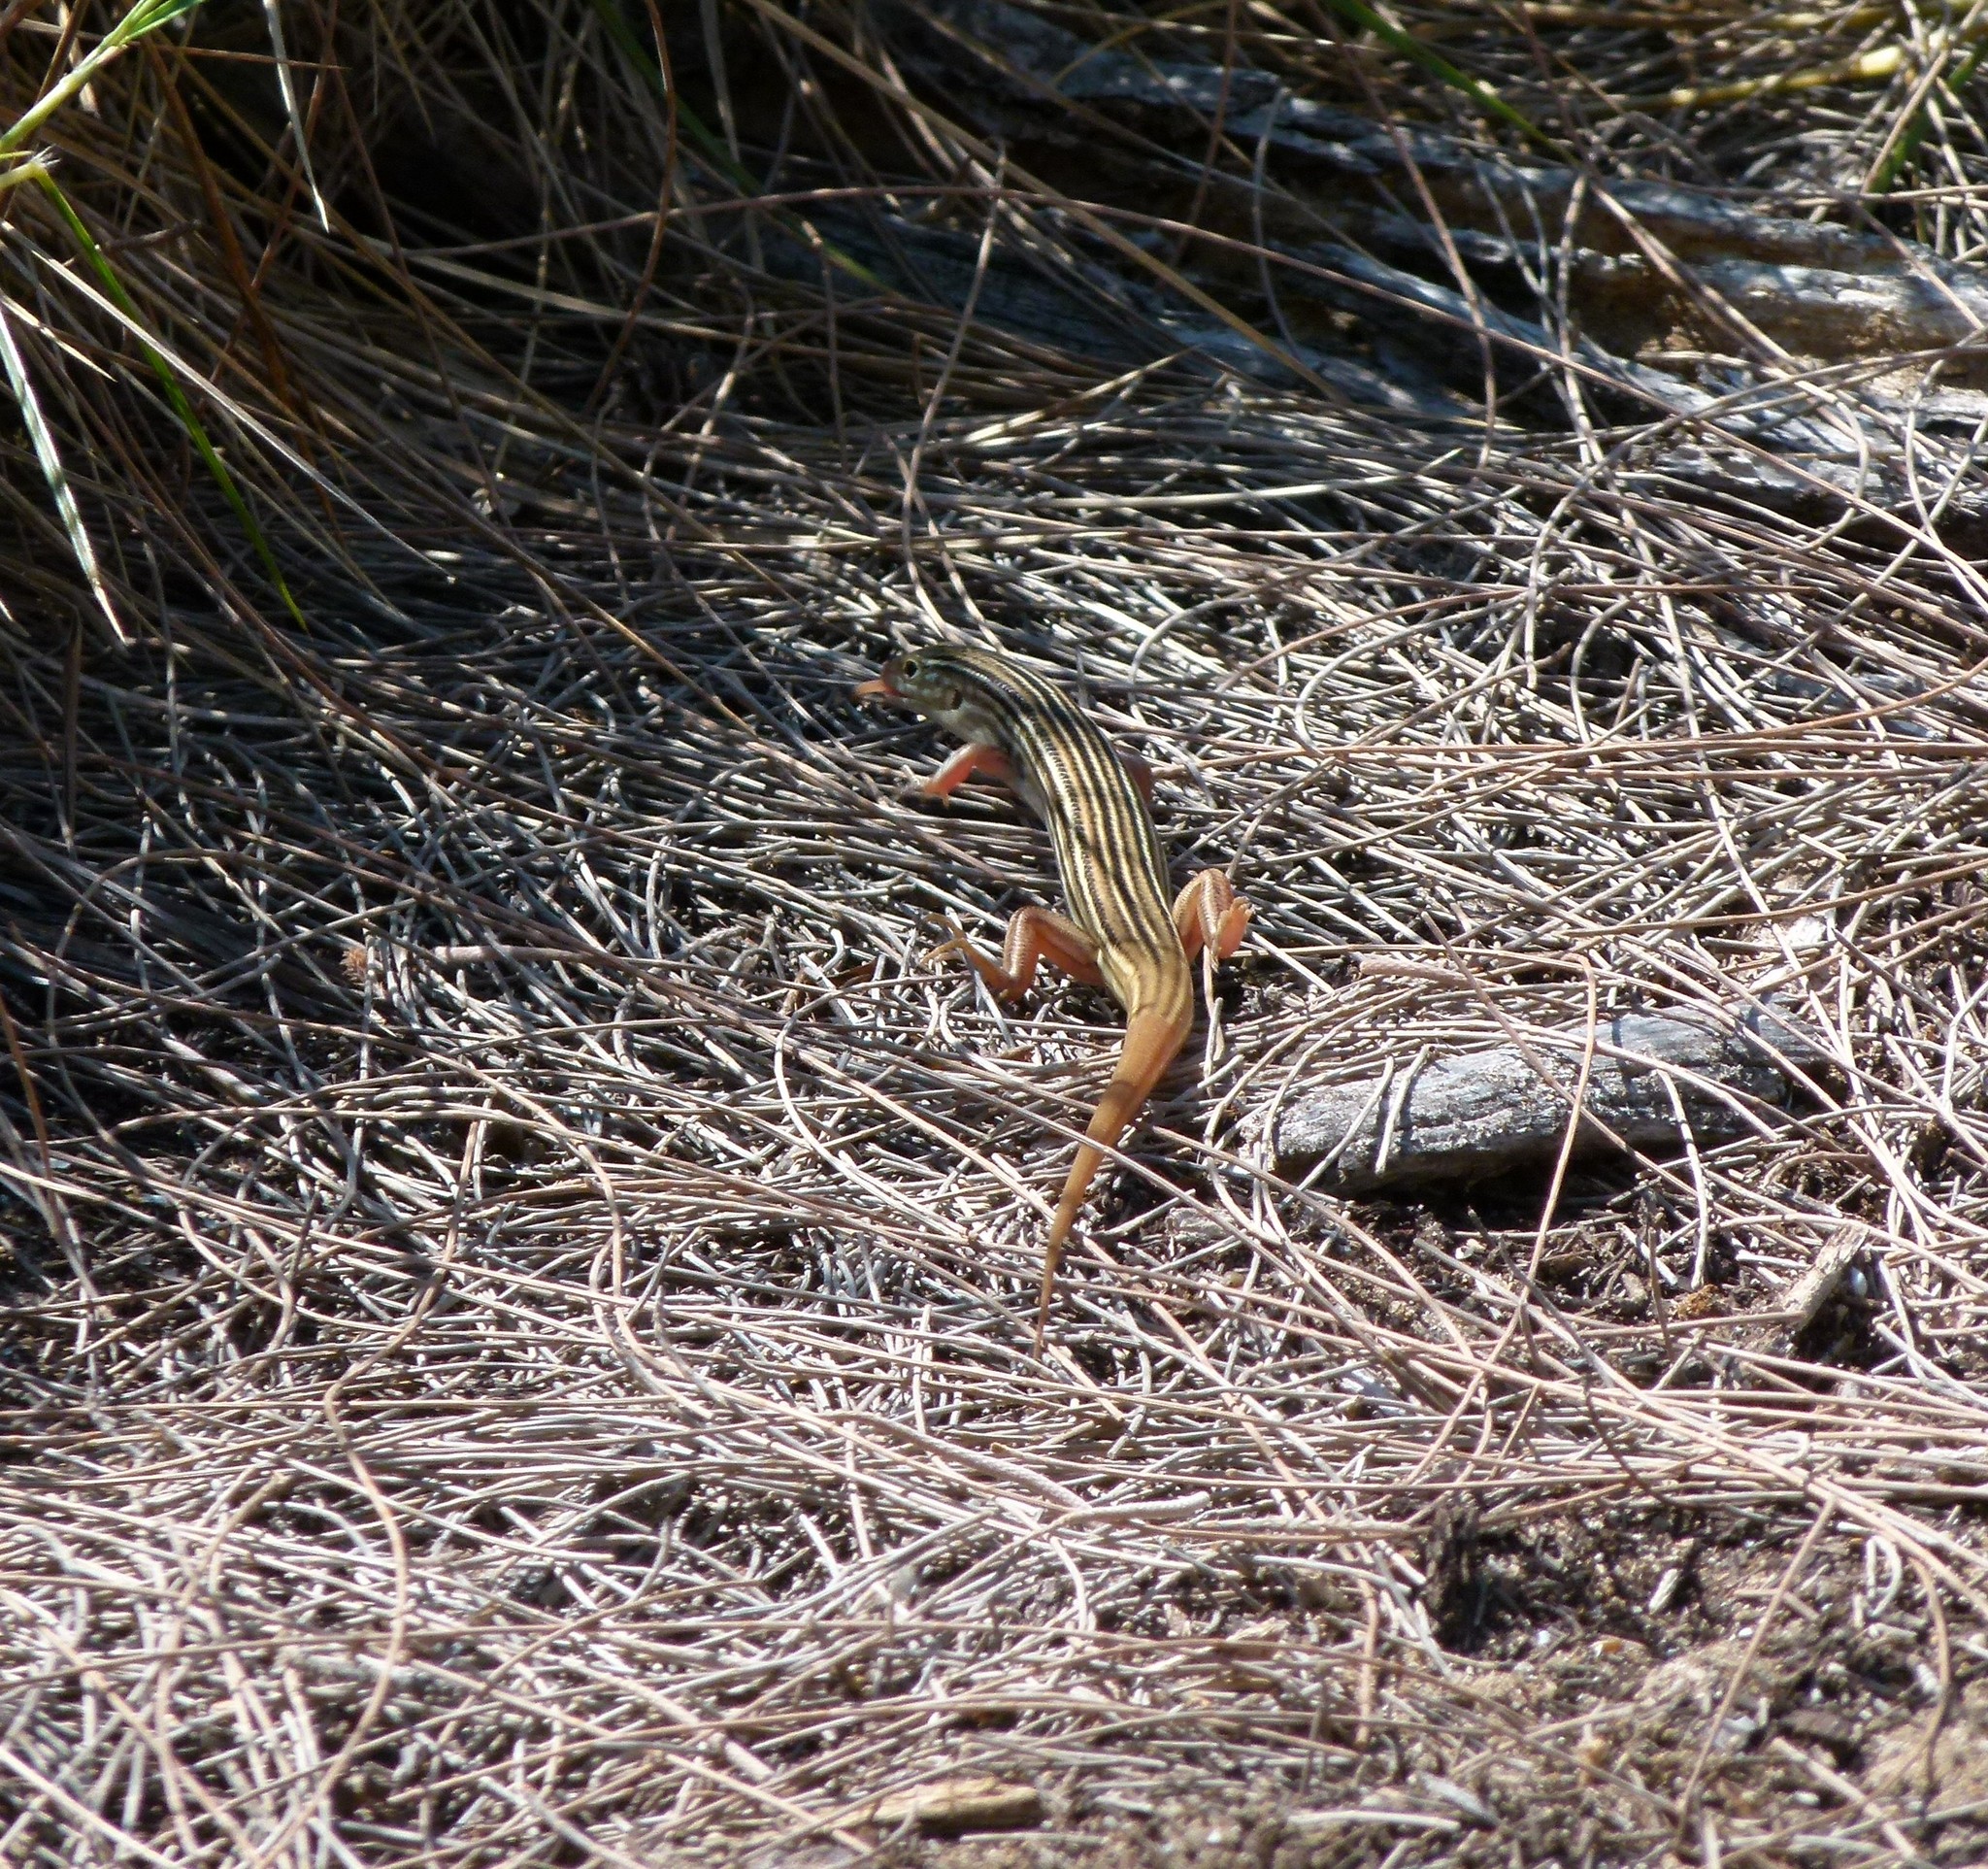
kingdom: Animalia
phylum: Chordata
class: Squamata
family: Scincidae
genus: Ctenotus
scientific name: Ctenotus eutaenius
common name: Black-backed yellow-lined ctenotus
